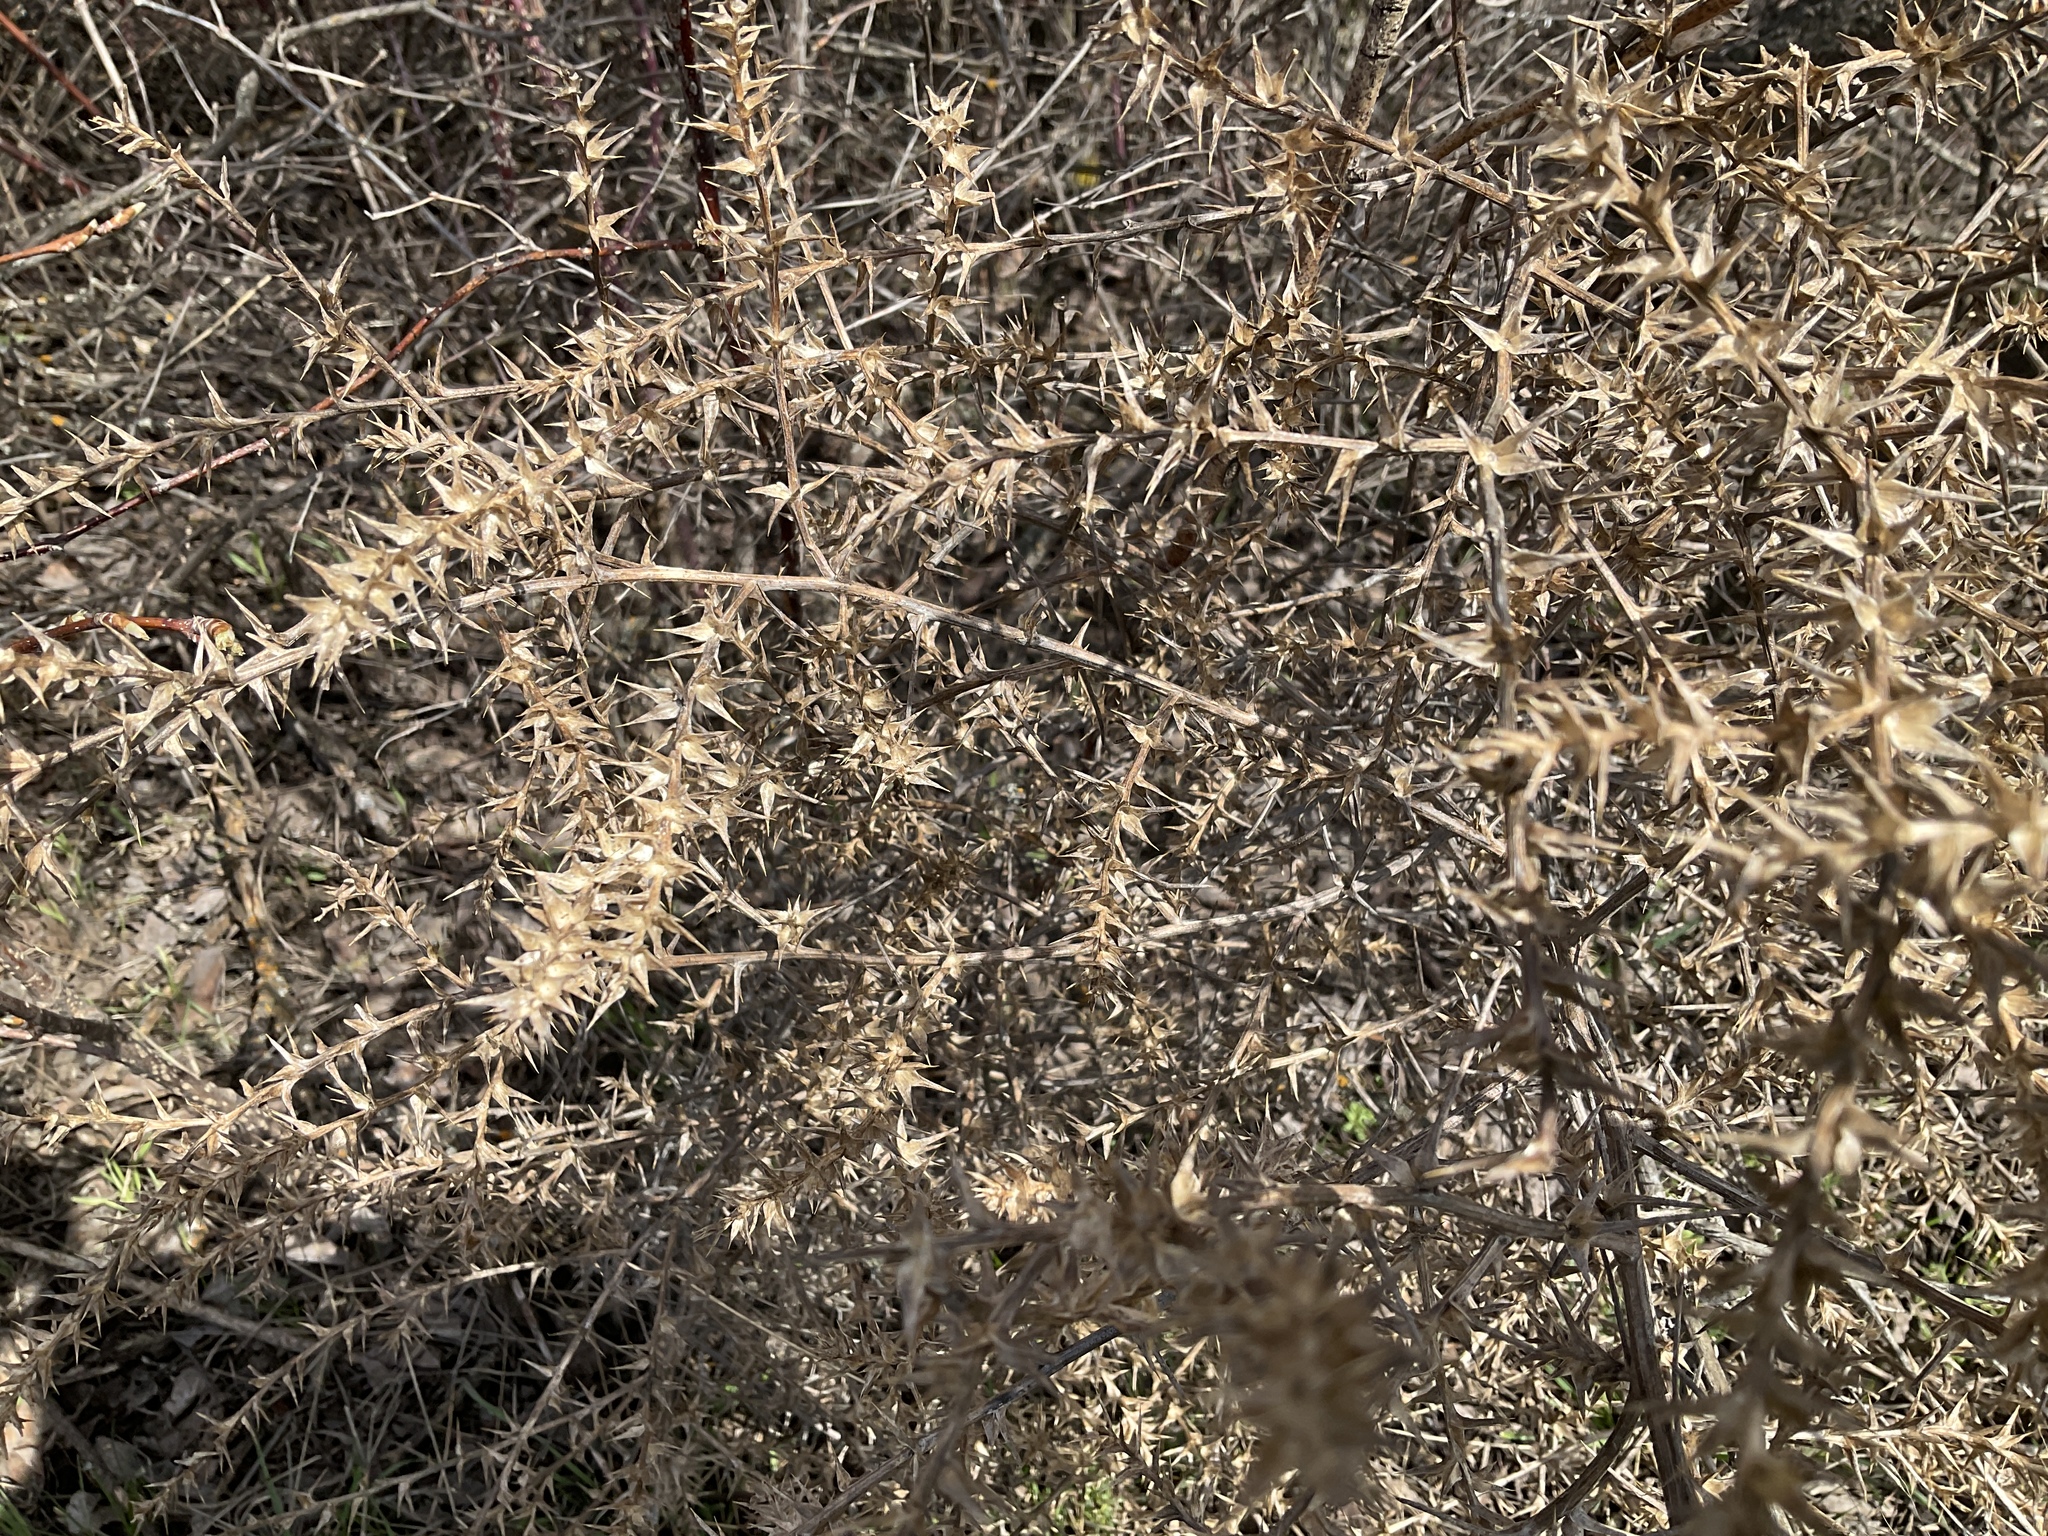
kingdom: Plantae
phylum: Tracheophyta
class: Magnoliopsida
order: Caryophyllales
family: Amaranthaceae
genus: Salsola
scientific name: Salsola tragus
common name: Prickly russian thistle
